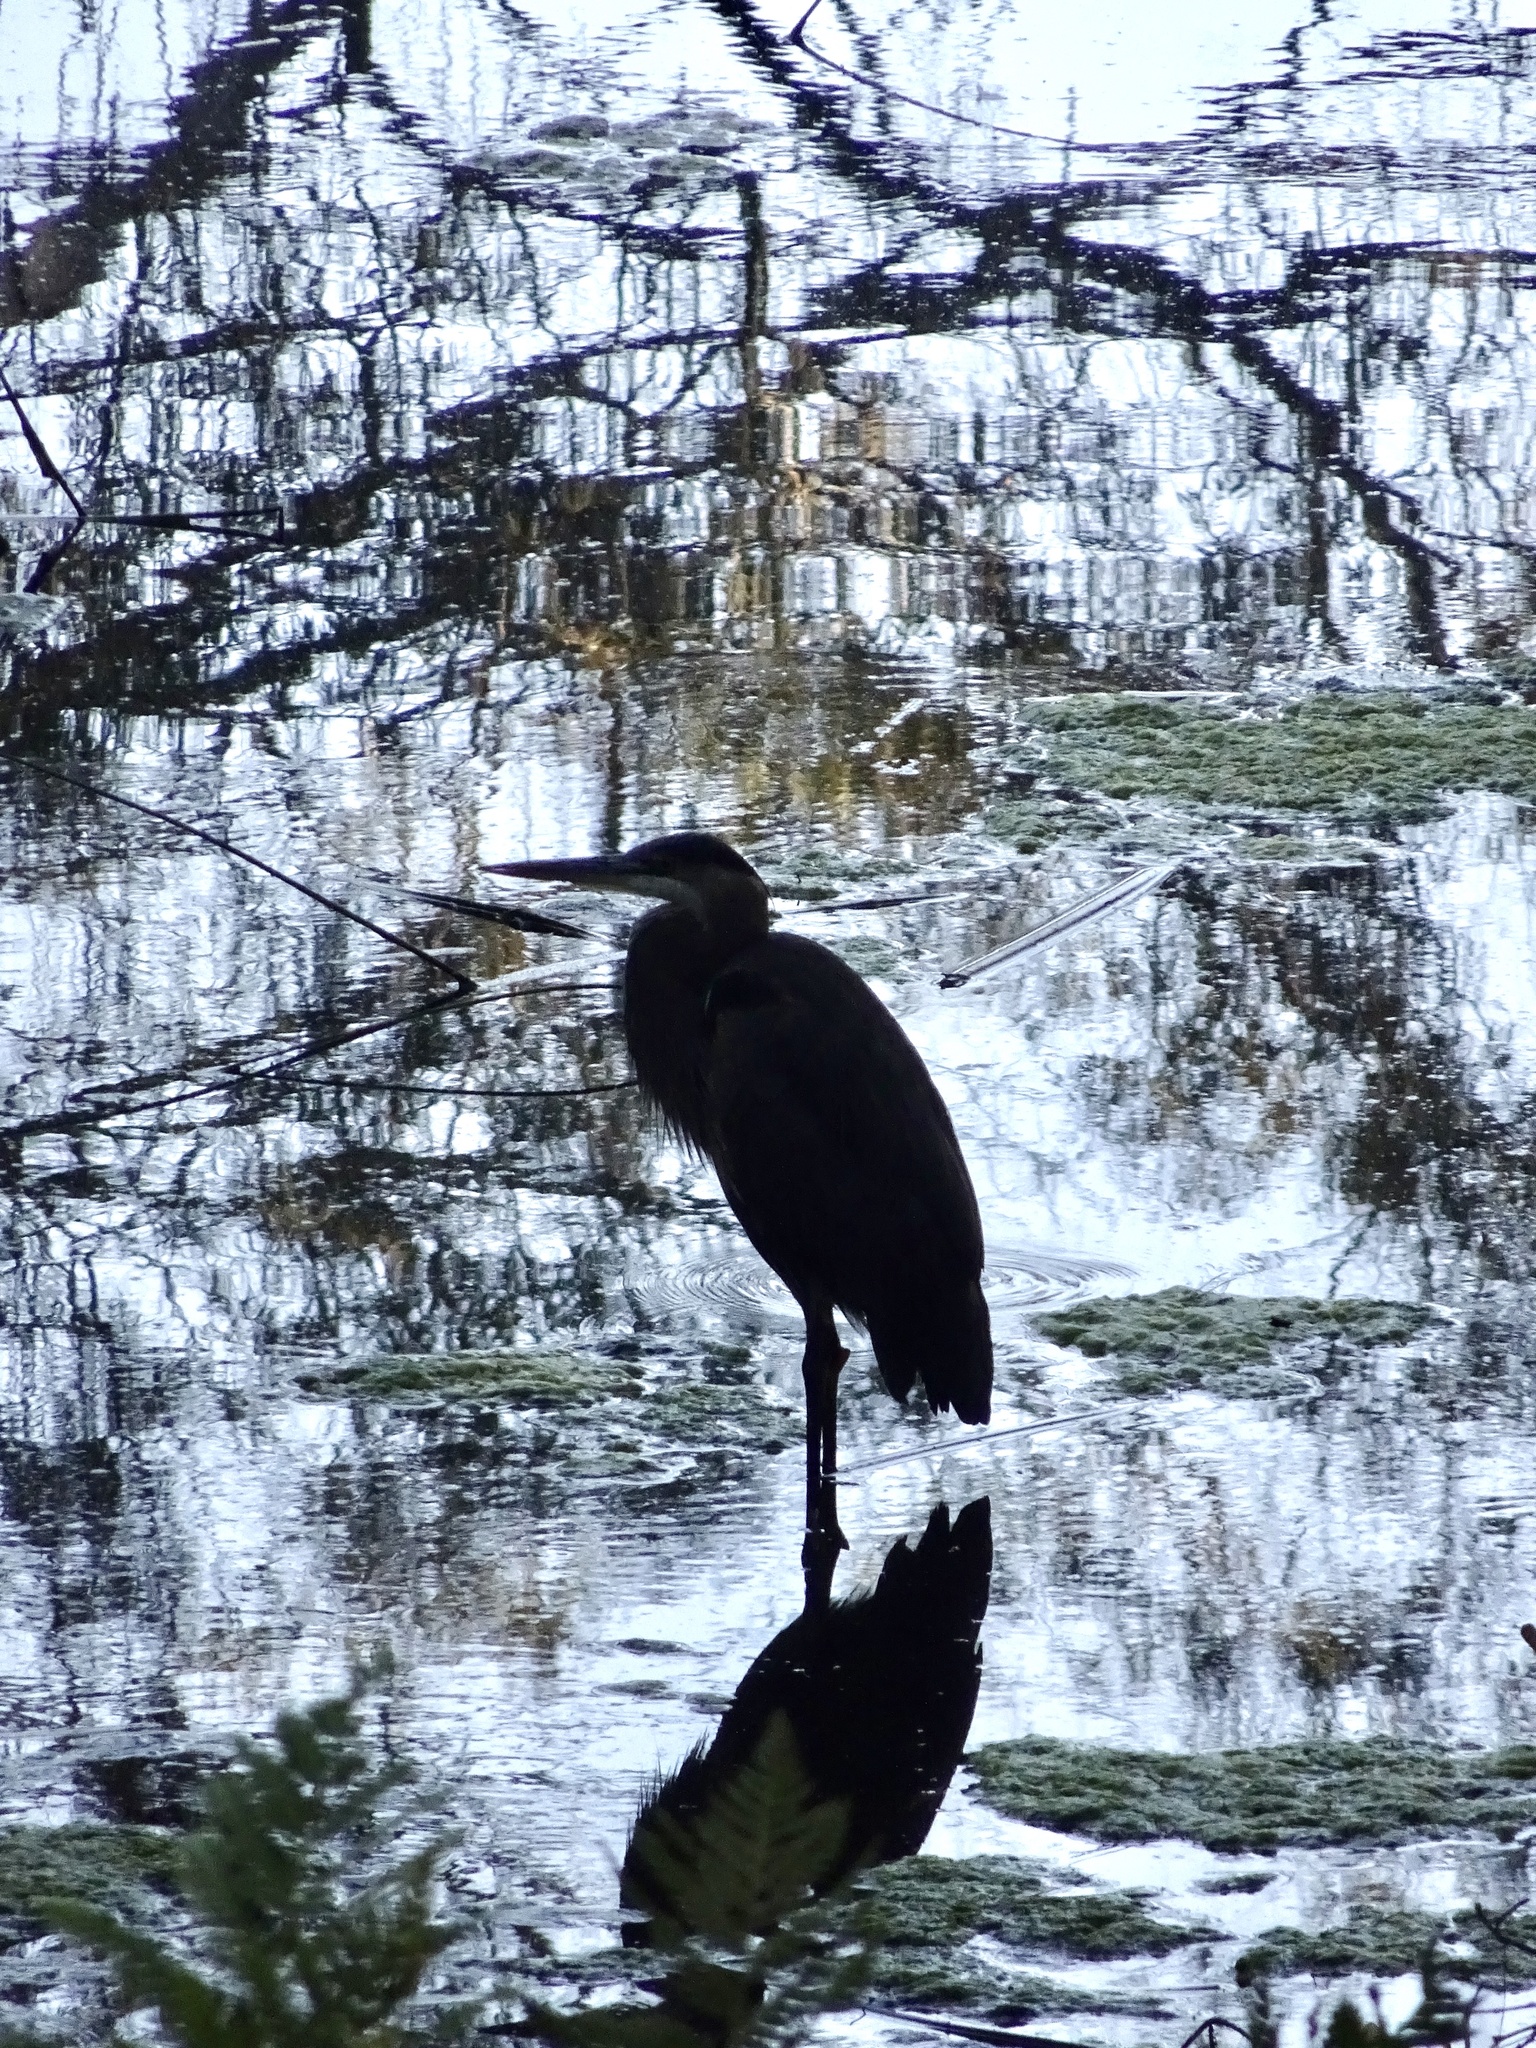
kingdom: Animalia
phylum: Chordata
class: Aves
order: Pelecaniformes
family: Ardeidae
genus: Ardea
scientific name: Ardea herodias
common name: Great blue heron
